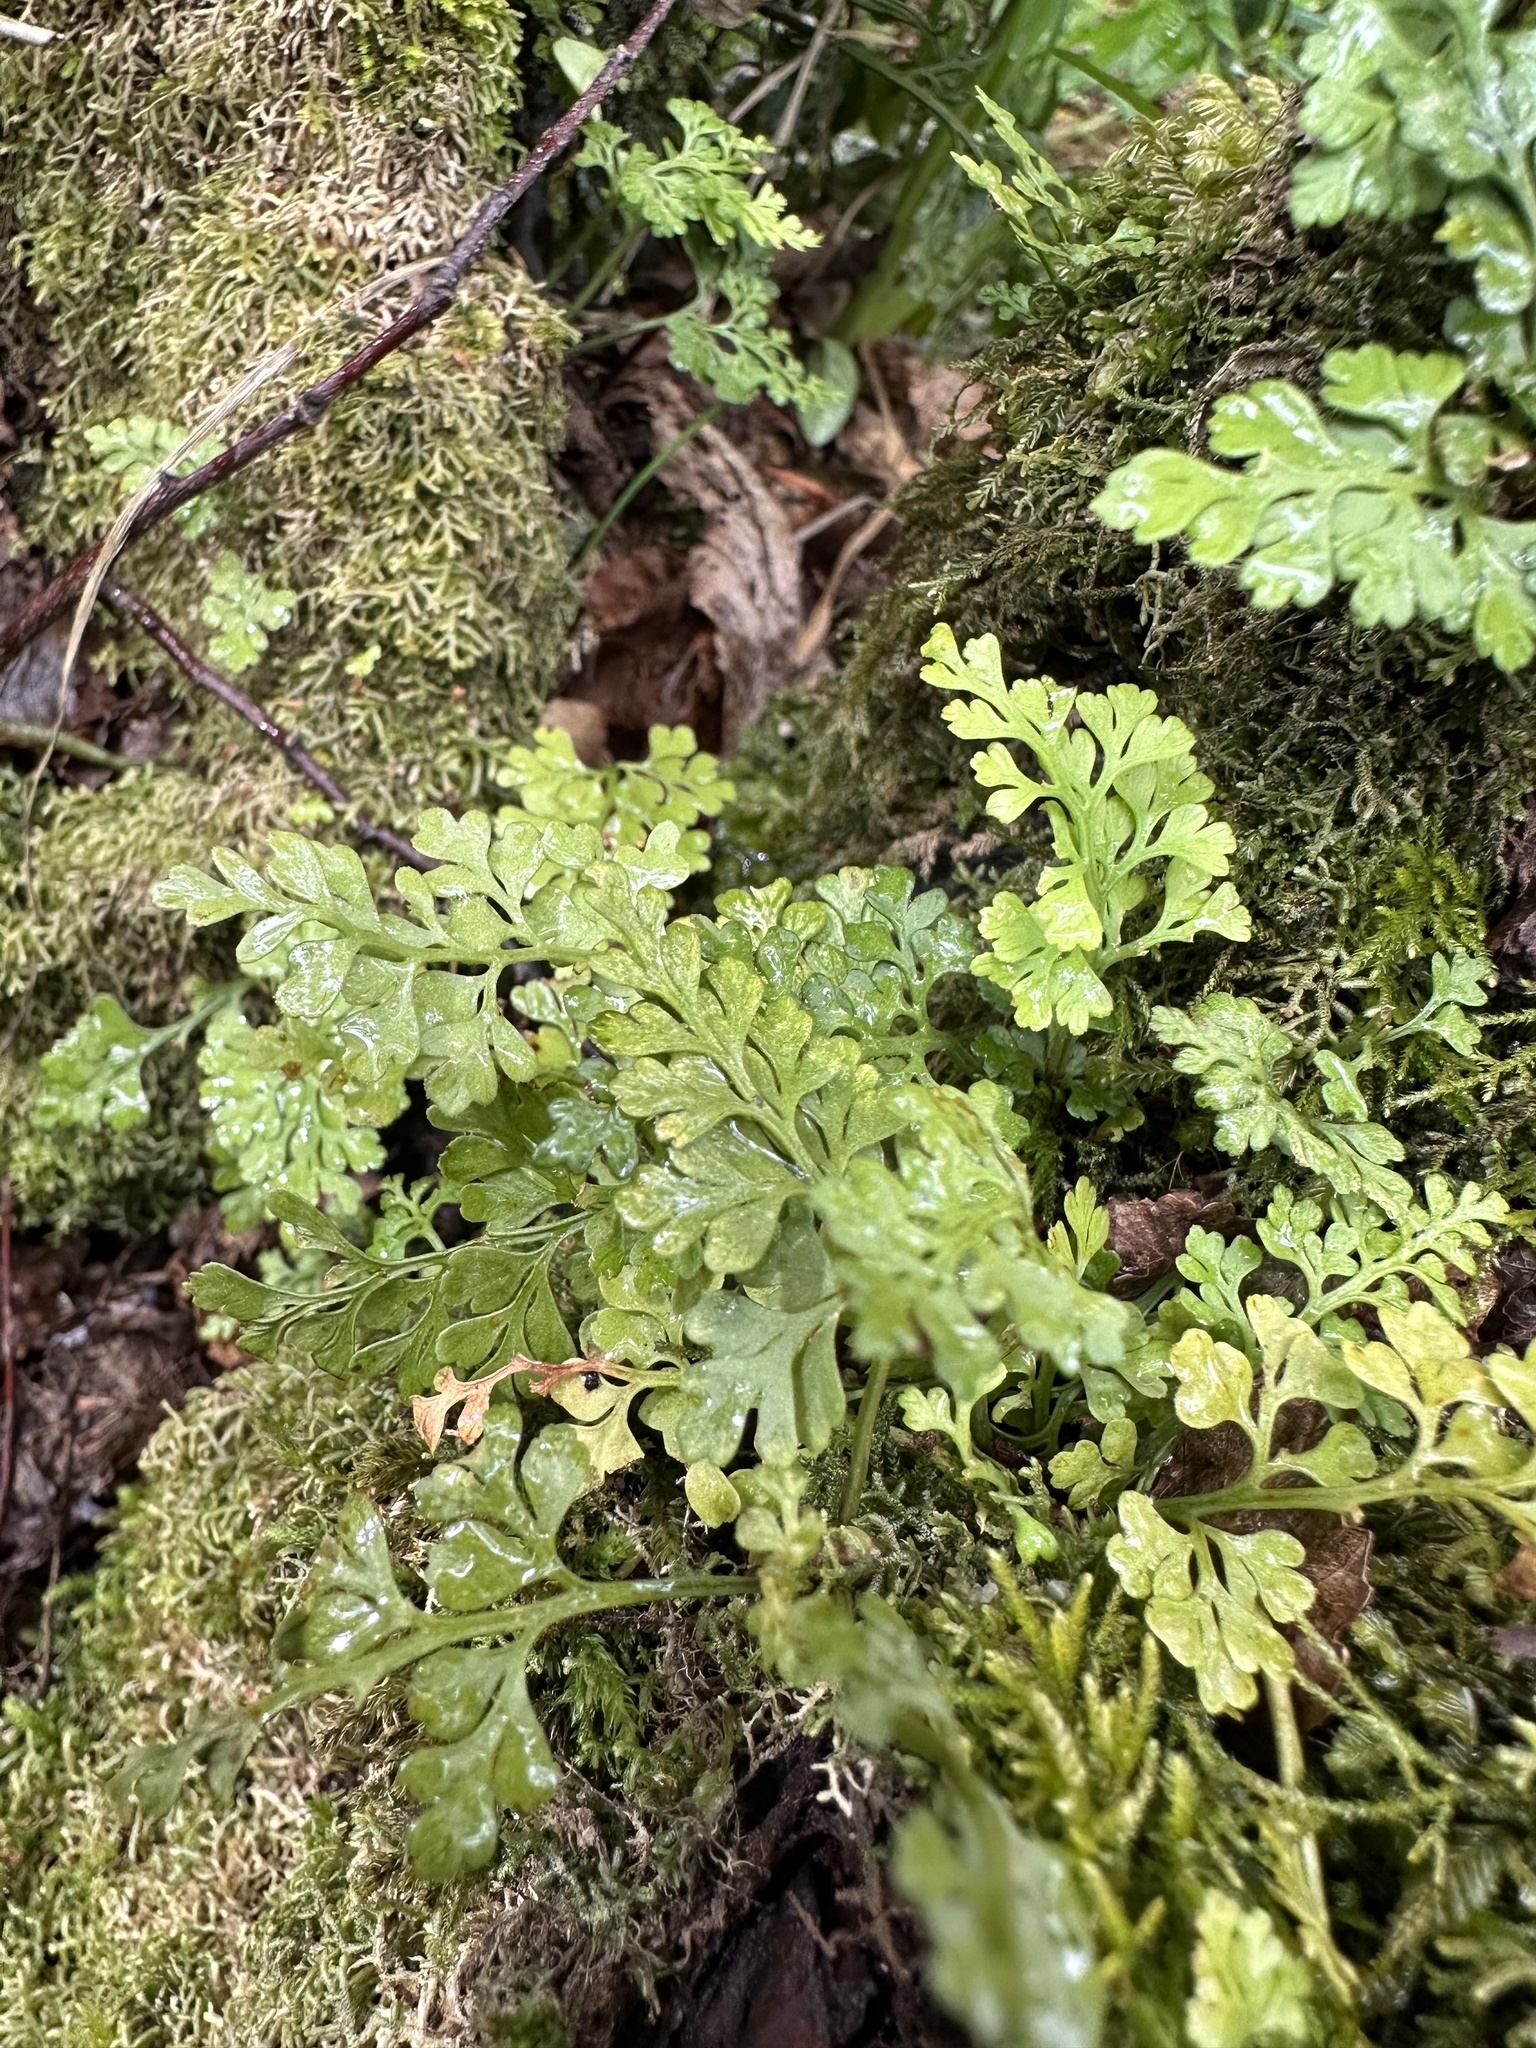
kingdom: Plantae
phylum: Tracheophyta
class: Polypodiopsida
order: Polypodiales
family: Aspleniaceae
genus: Asplenium
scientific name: Asplenium dareoides
